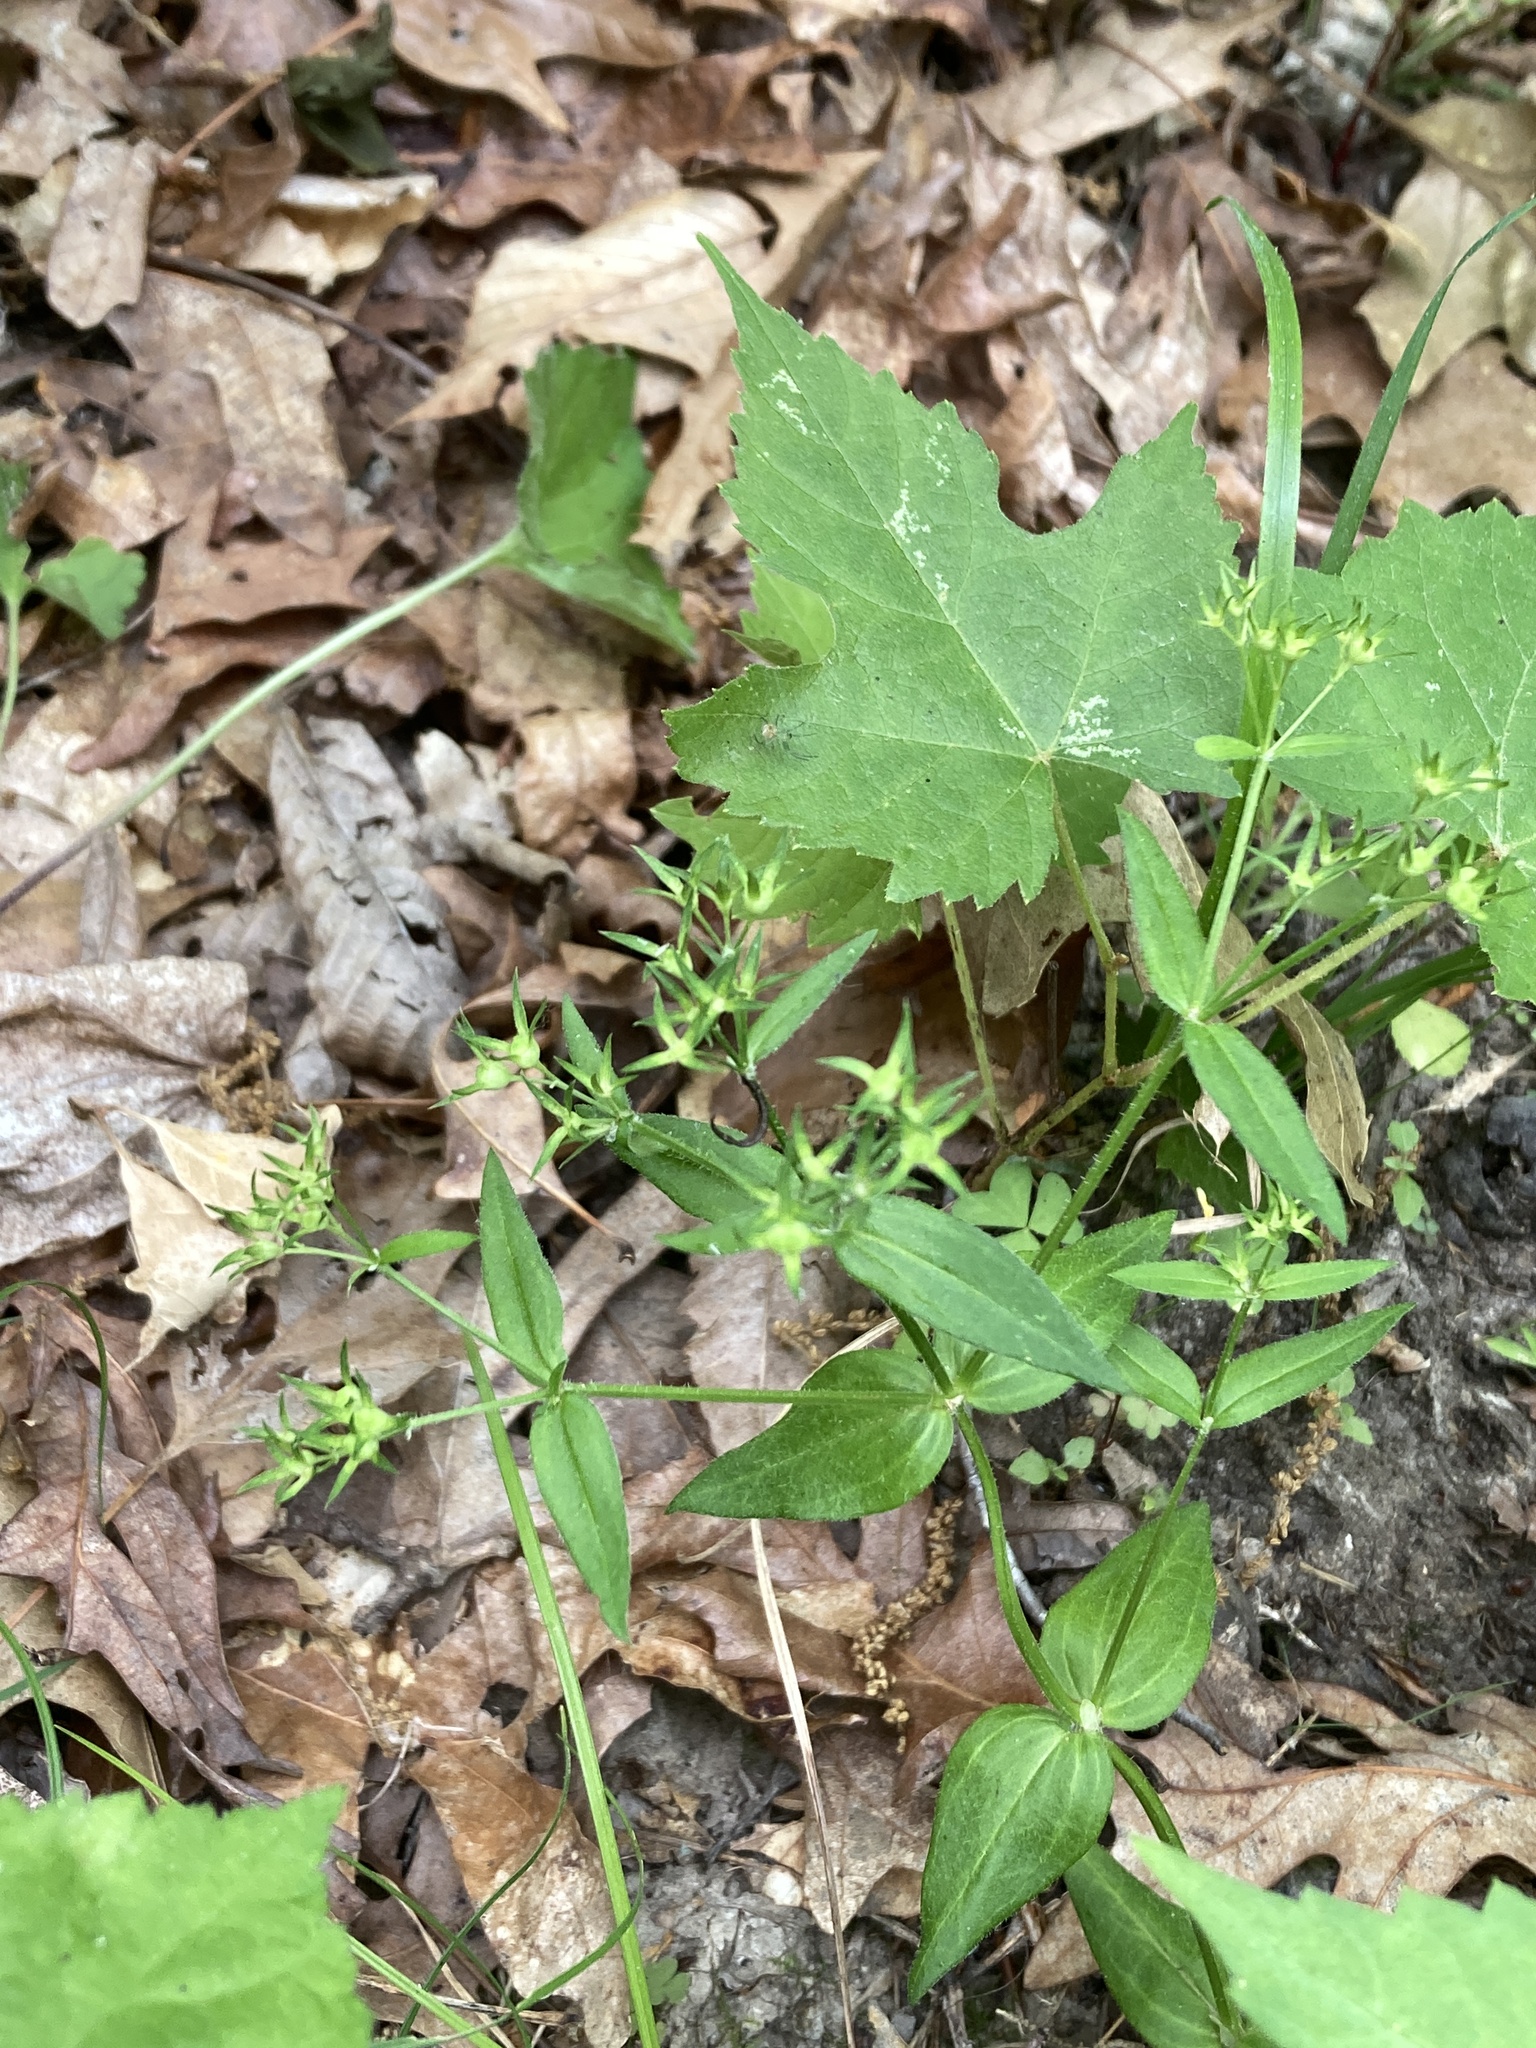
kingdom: Plantae
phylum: Tracheophyta
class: Magnoliopsida
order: Gentianales
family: Rubiaceae
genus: Houstonia
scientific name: Houstonia purpurea
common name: Summer bluet
